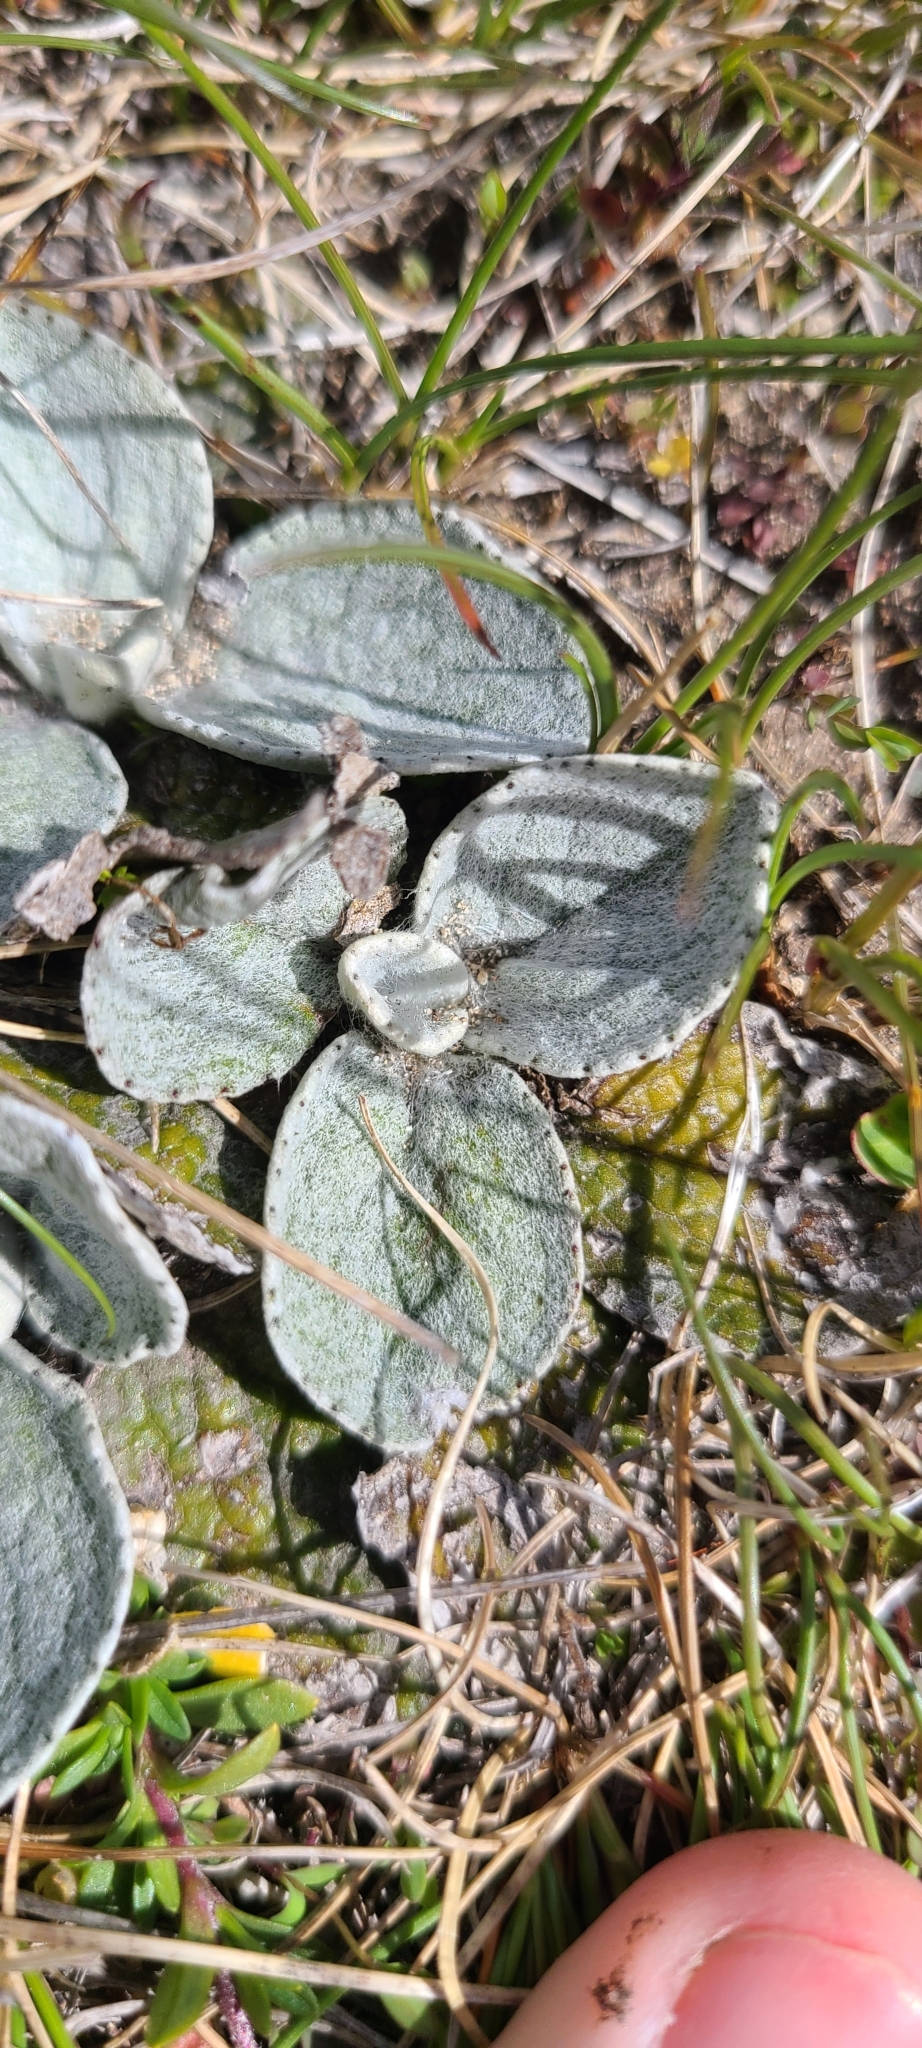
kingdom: Plantae
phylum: Tracheophyta
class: Magnoliopsida
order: Asterales
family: Asteraceae
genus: Brachyglottis
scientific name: Brachyglottis haastii
